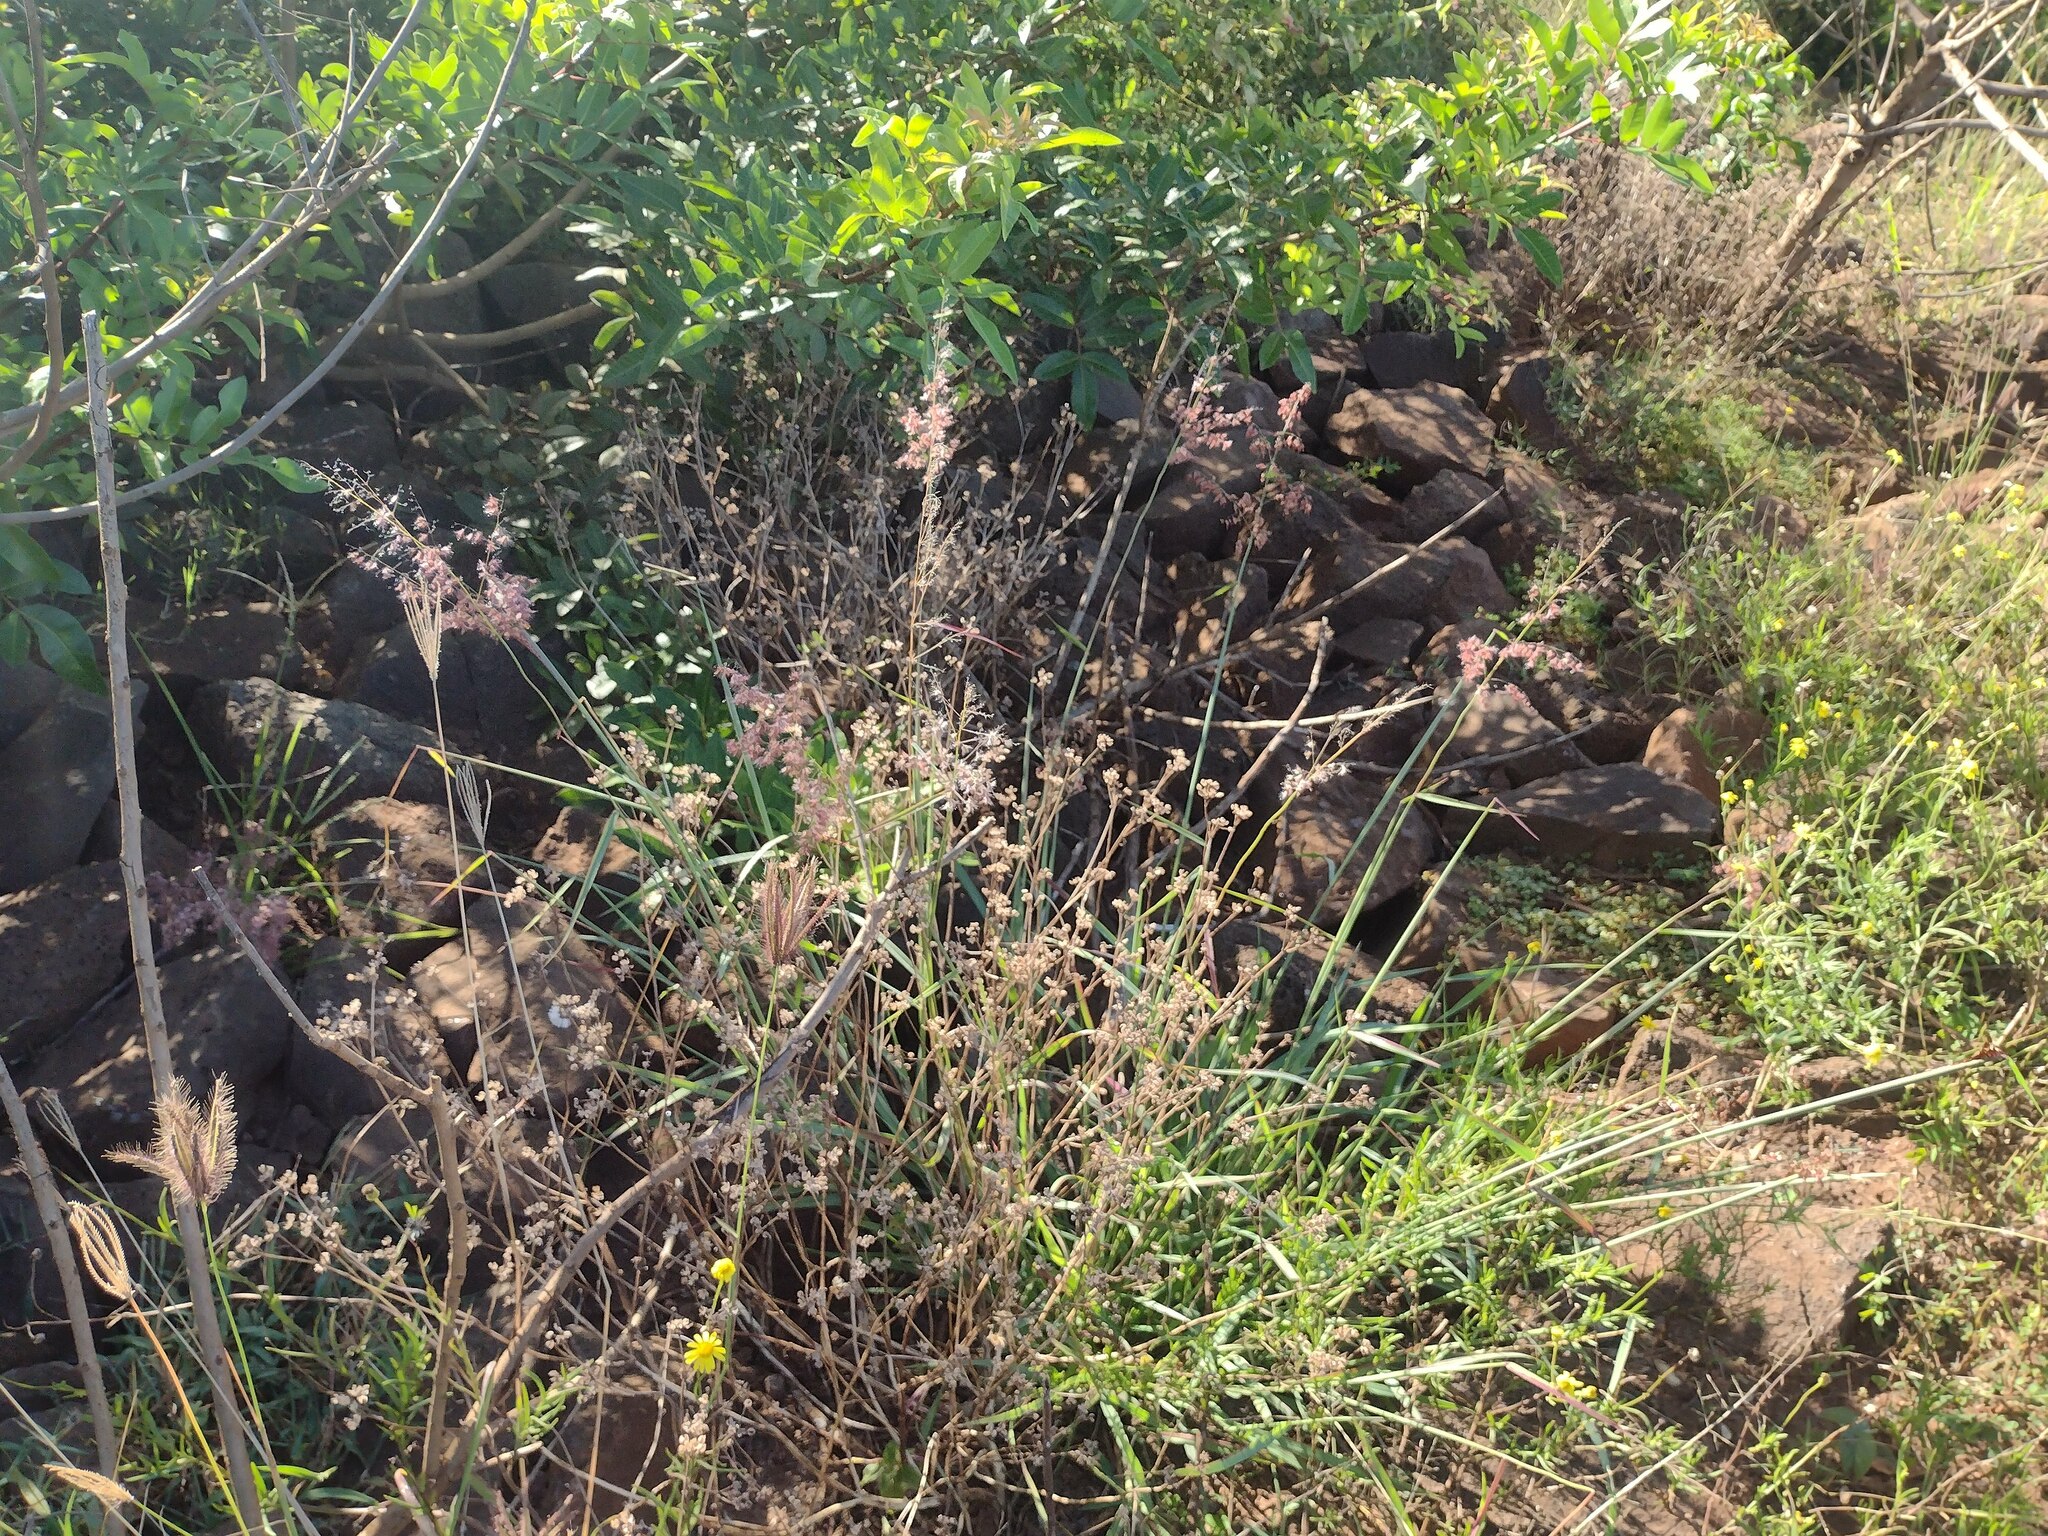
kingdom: Plantae
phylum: Tracheophyta
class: Liliopsida
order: Poales
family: Poaceae
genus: Melinis
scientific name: Melinis repens
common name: Rose natal grass
